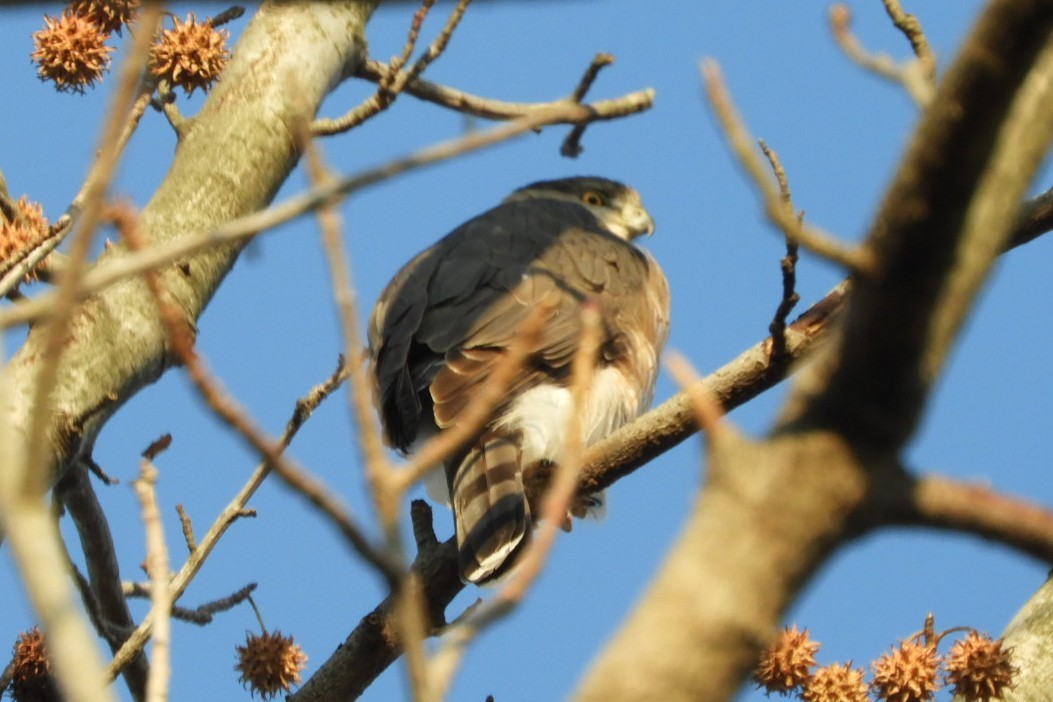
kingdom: Animalia
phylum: Chordata
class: Aves
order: Accipitriformes
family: Accipitridae
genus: Accipiter
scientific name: Accipiter cooperii
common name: Cooper's hawk
